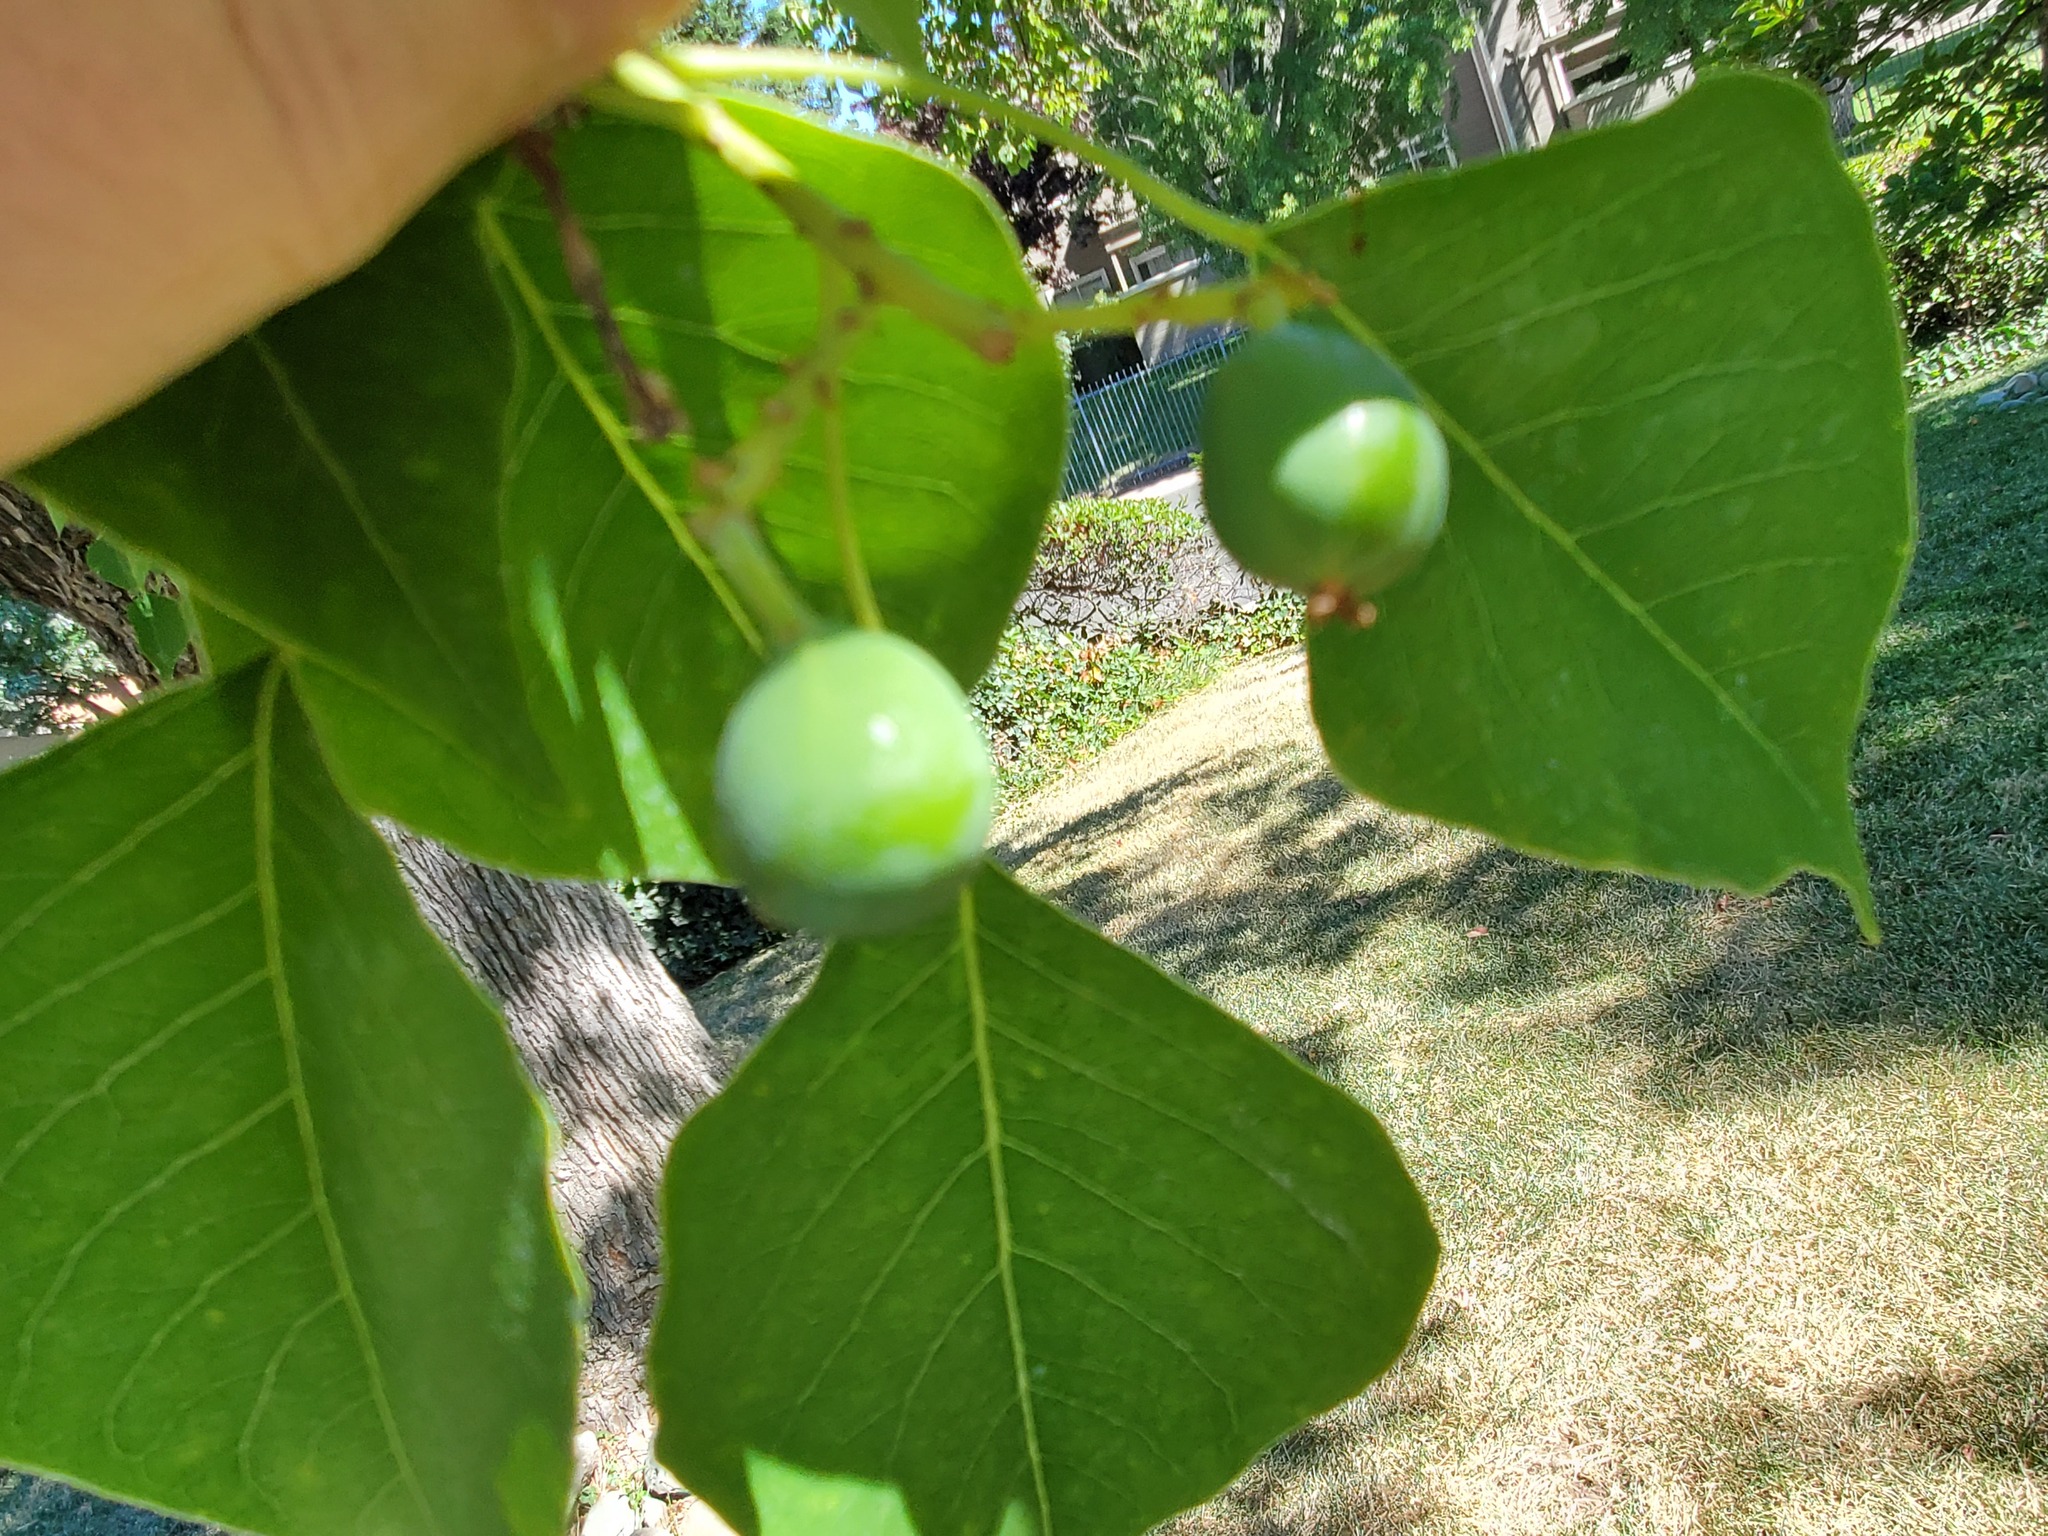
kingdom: Plantae
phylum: Tracheophyta
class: Magnoliopsida
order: Malpighiales
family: Euphorbiaceae
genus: Triadica
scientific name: Triadica sebifera
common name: Chinese tallow
